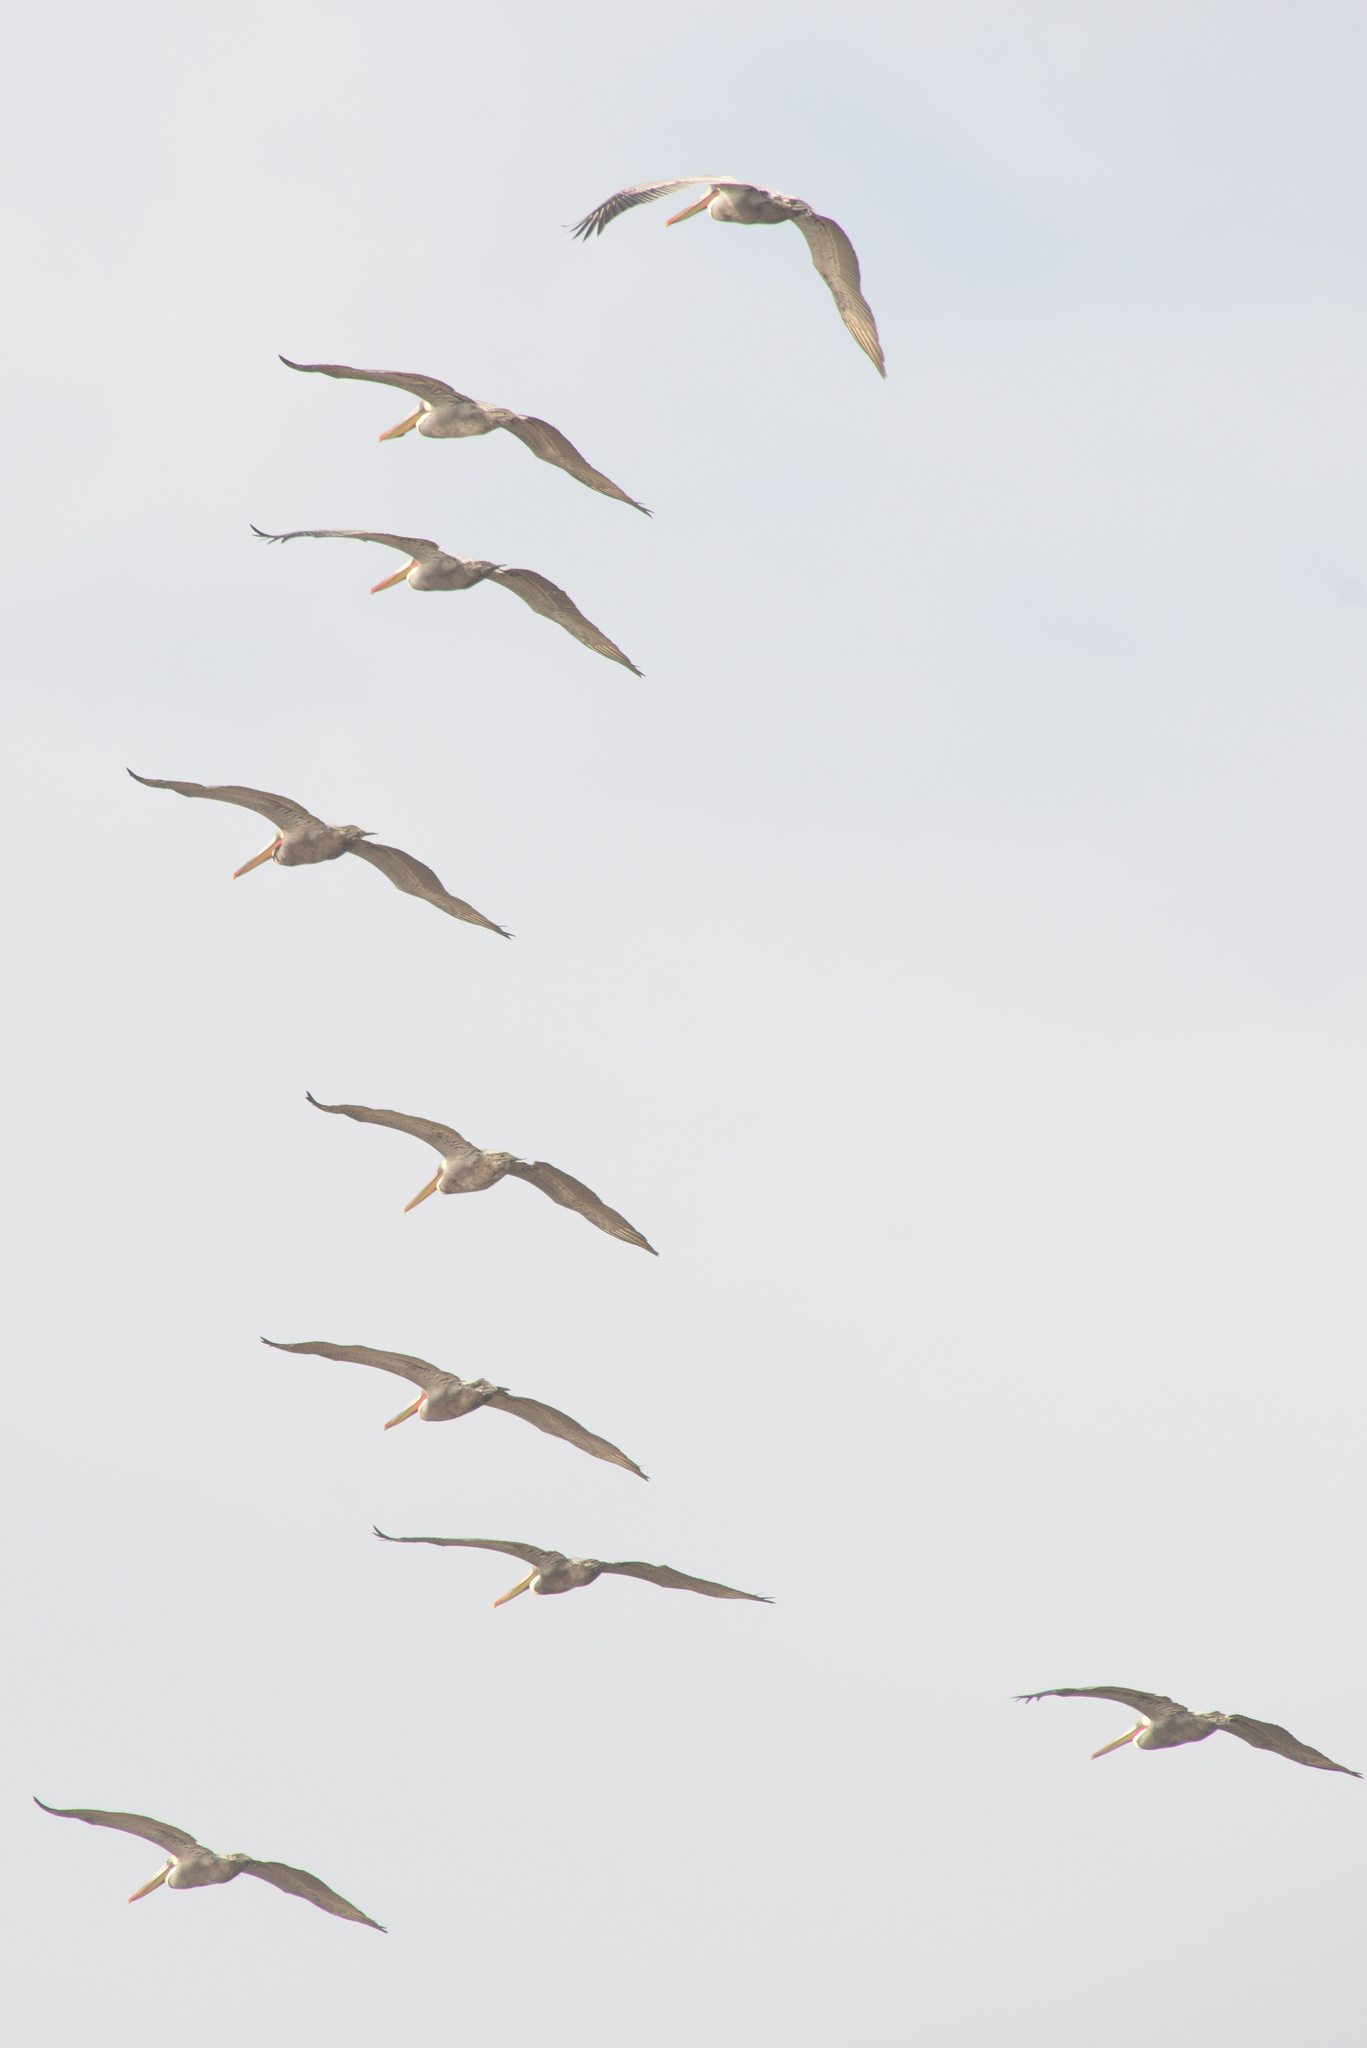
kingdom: Animalia
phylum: Chordata
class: Aves
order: Pelecaniformes
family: Pelecanidae
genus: Pelecanus
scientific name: Pelecanus occidentalis
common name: Brown pelican
